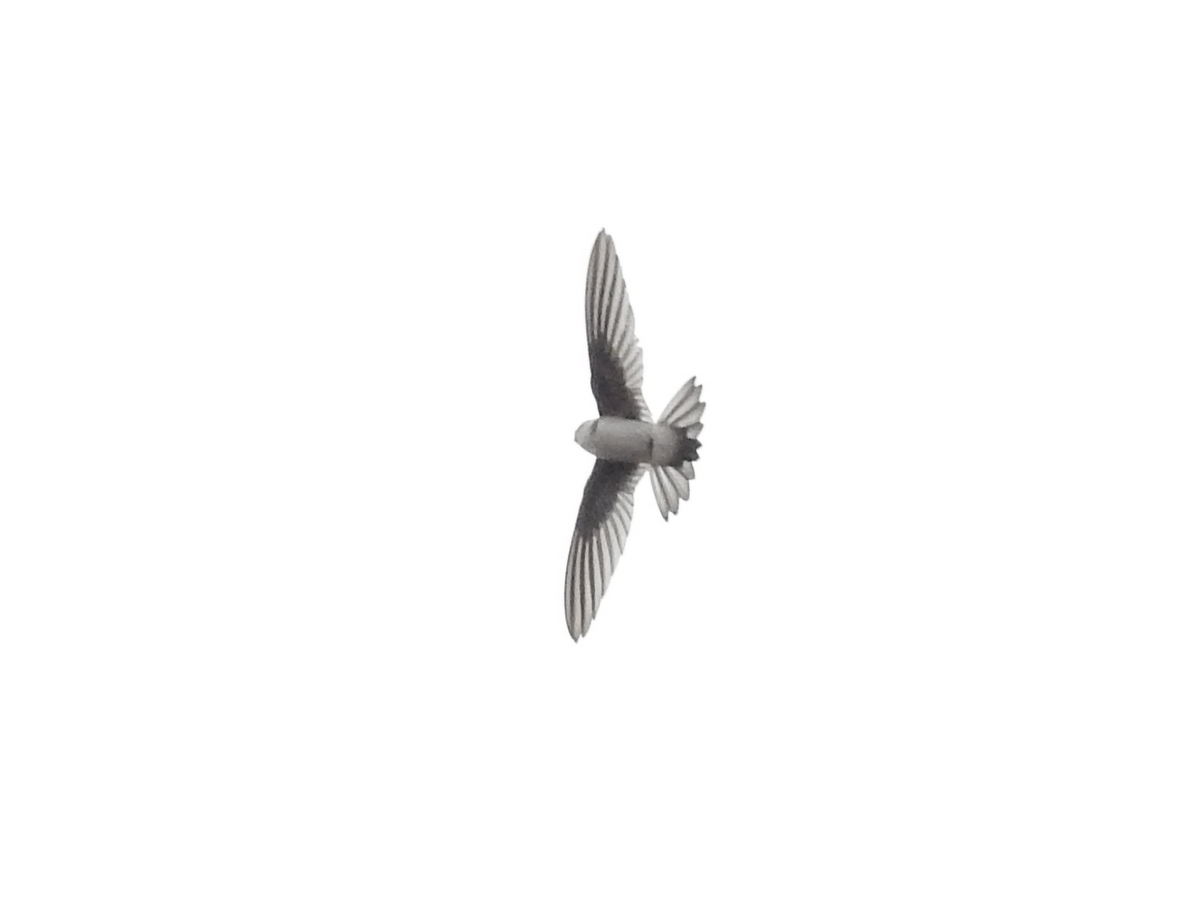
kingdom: Animalia
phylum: Chordata
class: Aves
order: Apodiformes
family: Apodidae
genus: Aeronautes
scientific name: Aeronautes andecolus
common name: Andean swift
